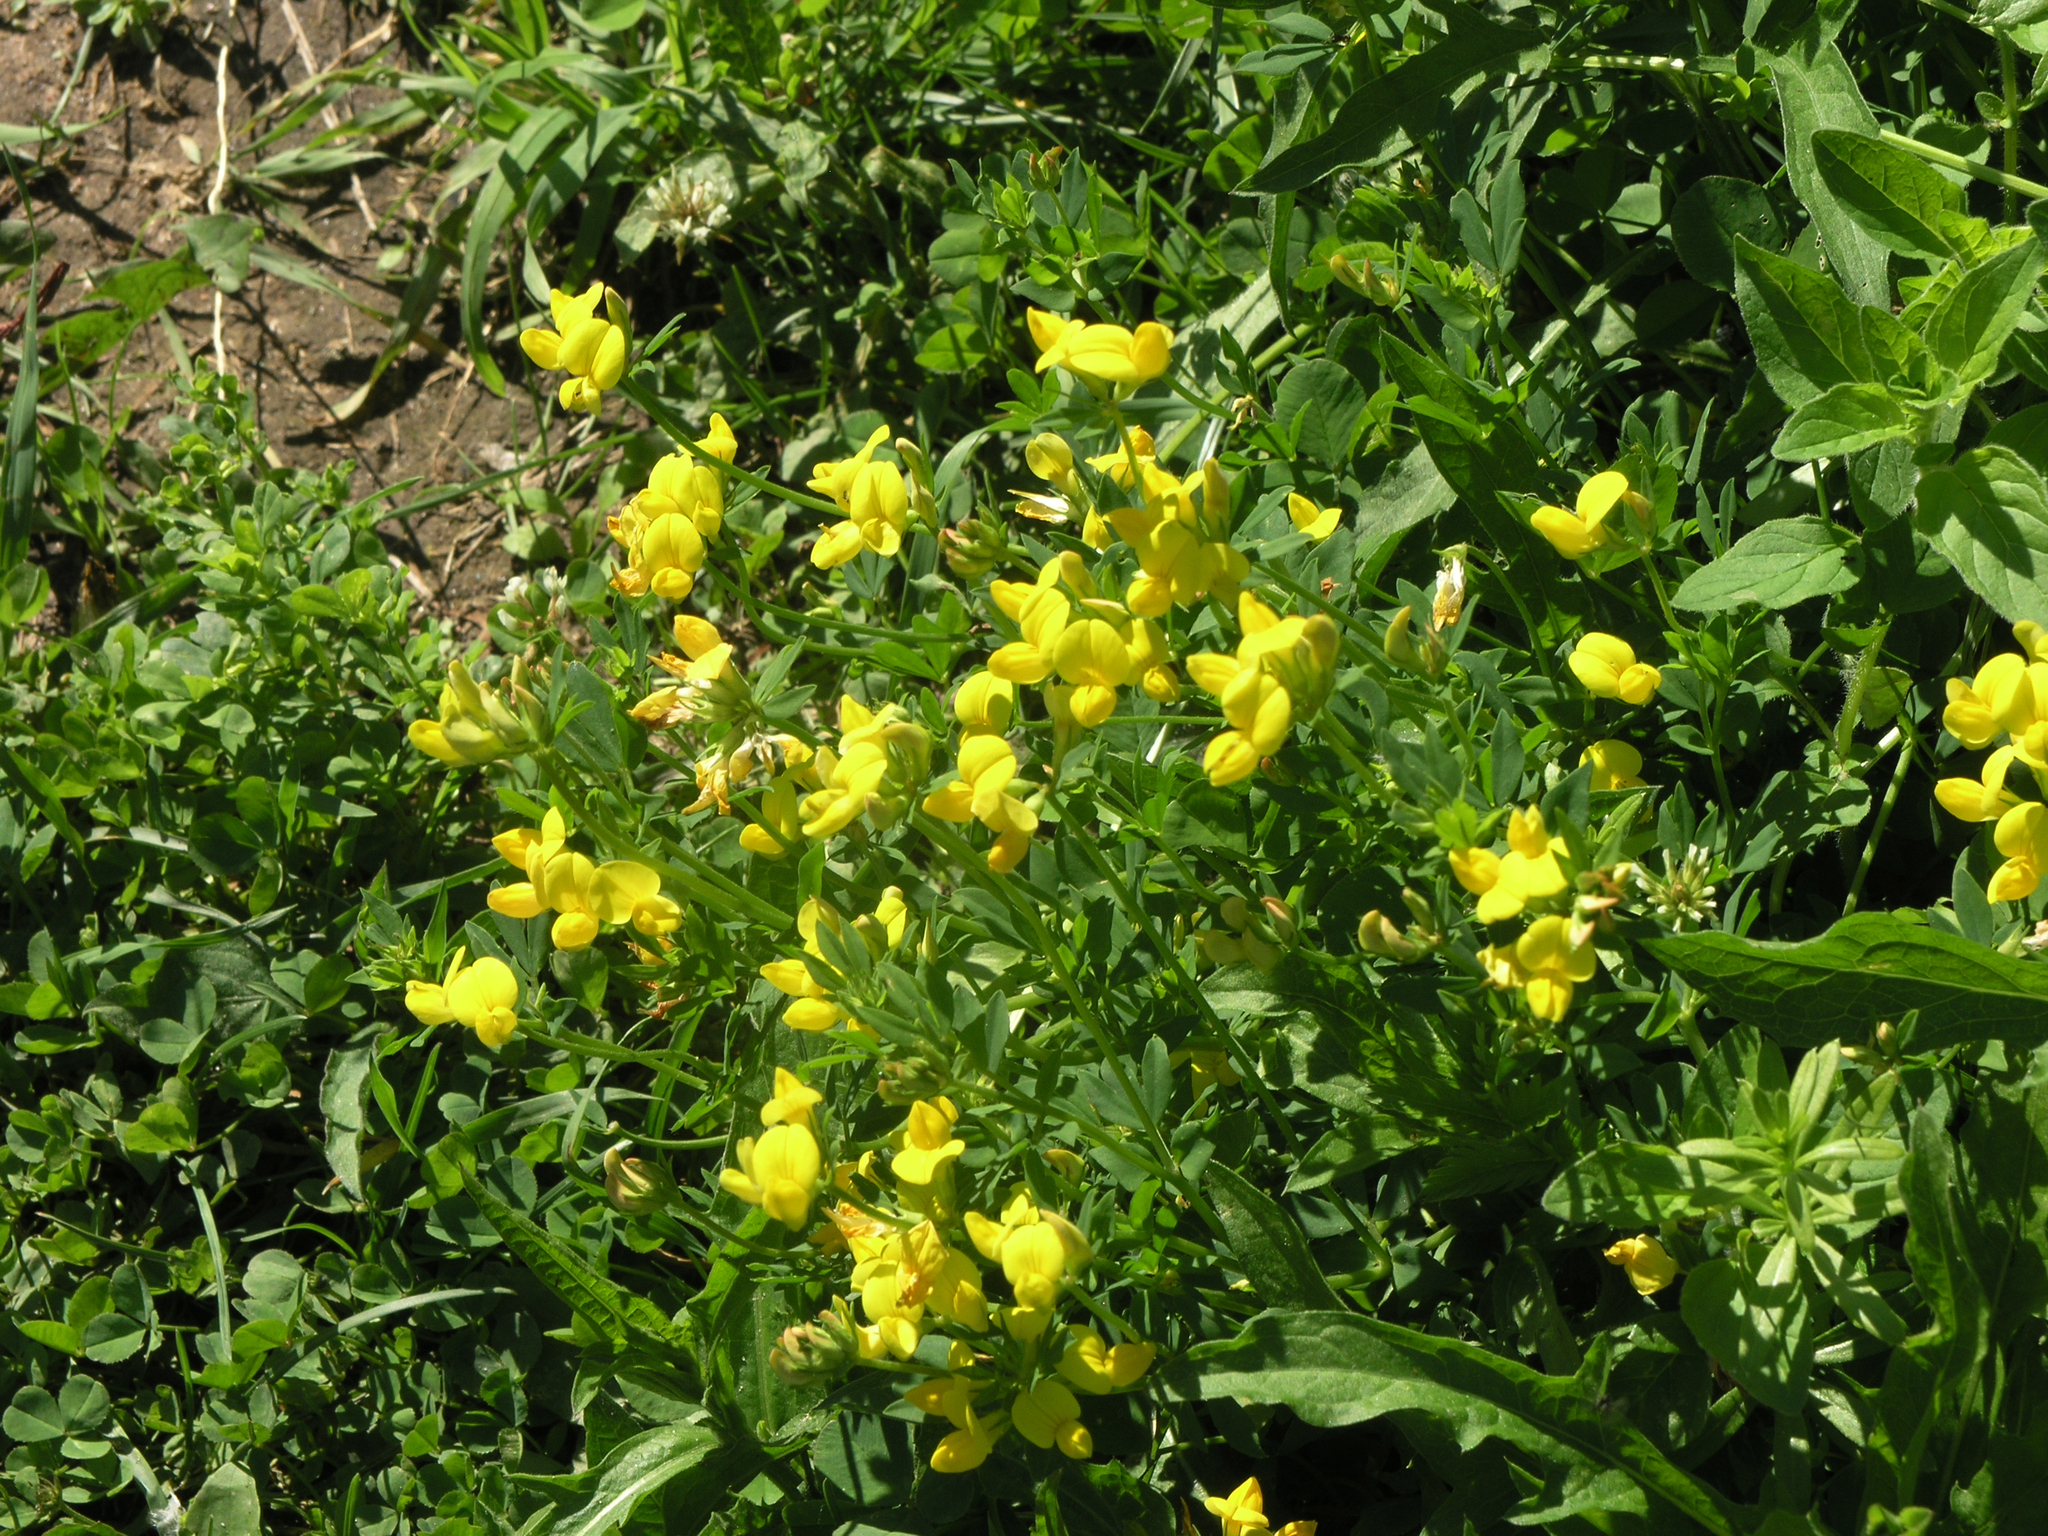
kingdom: Plantae
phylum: Tracheophyta
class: Magnoliopsida
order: Fabales
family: Fabaceae
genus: Lotus
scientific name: Lotus corniculatus
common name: Common bird's-foot-trefoil
